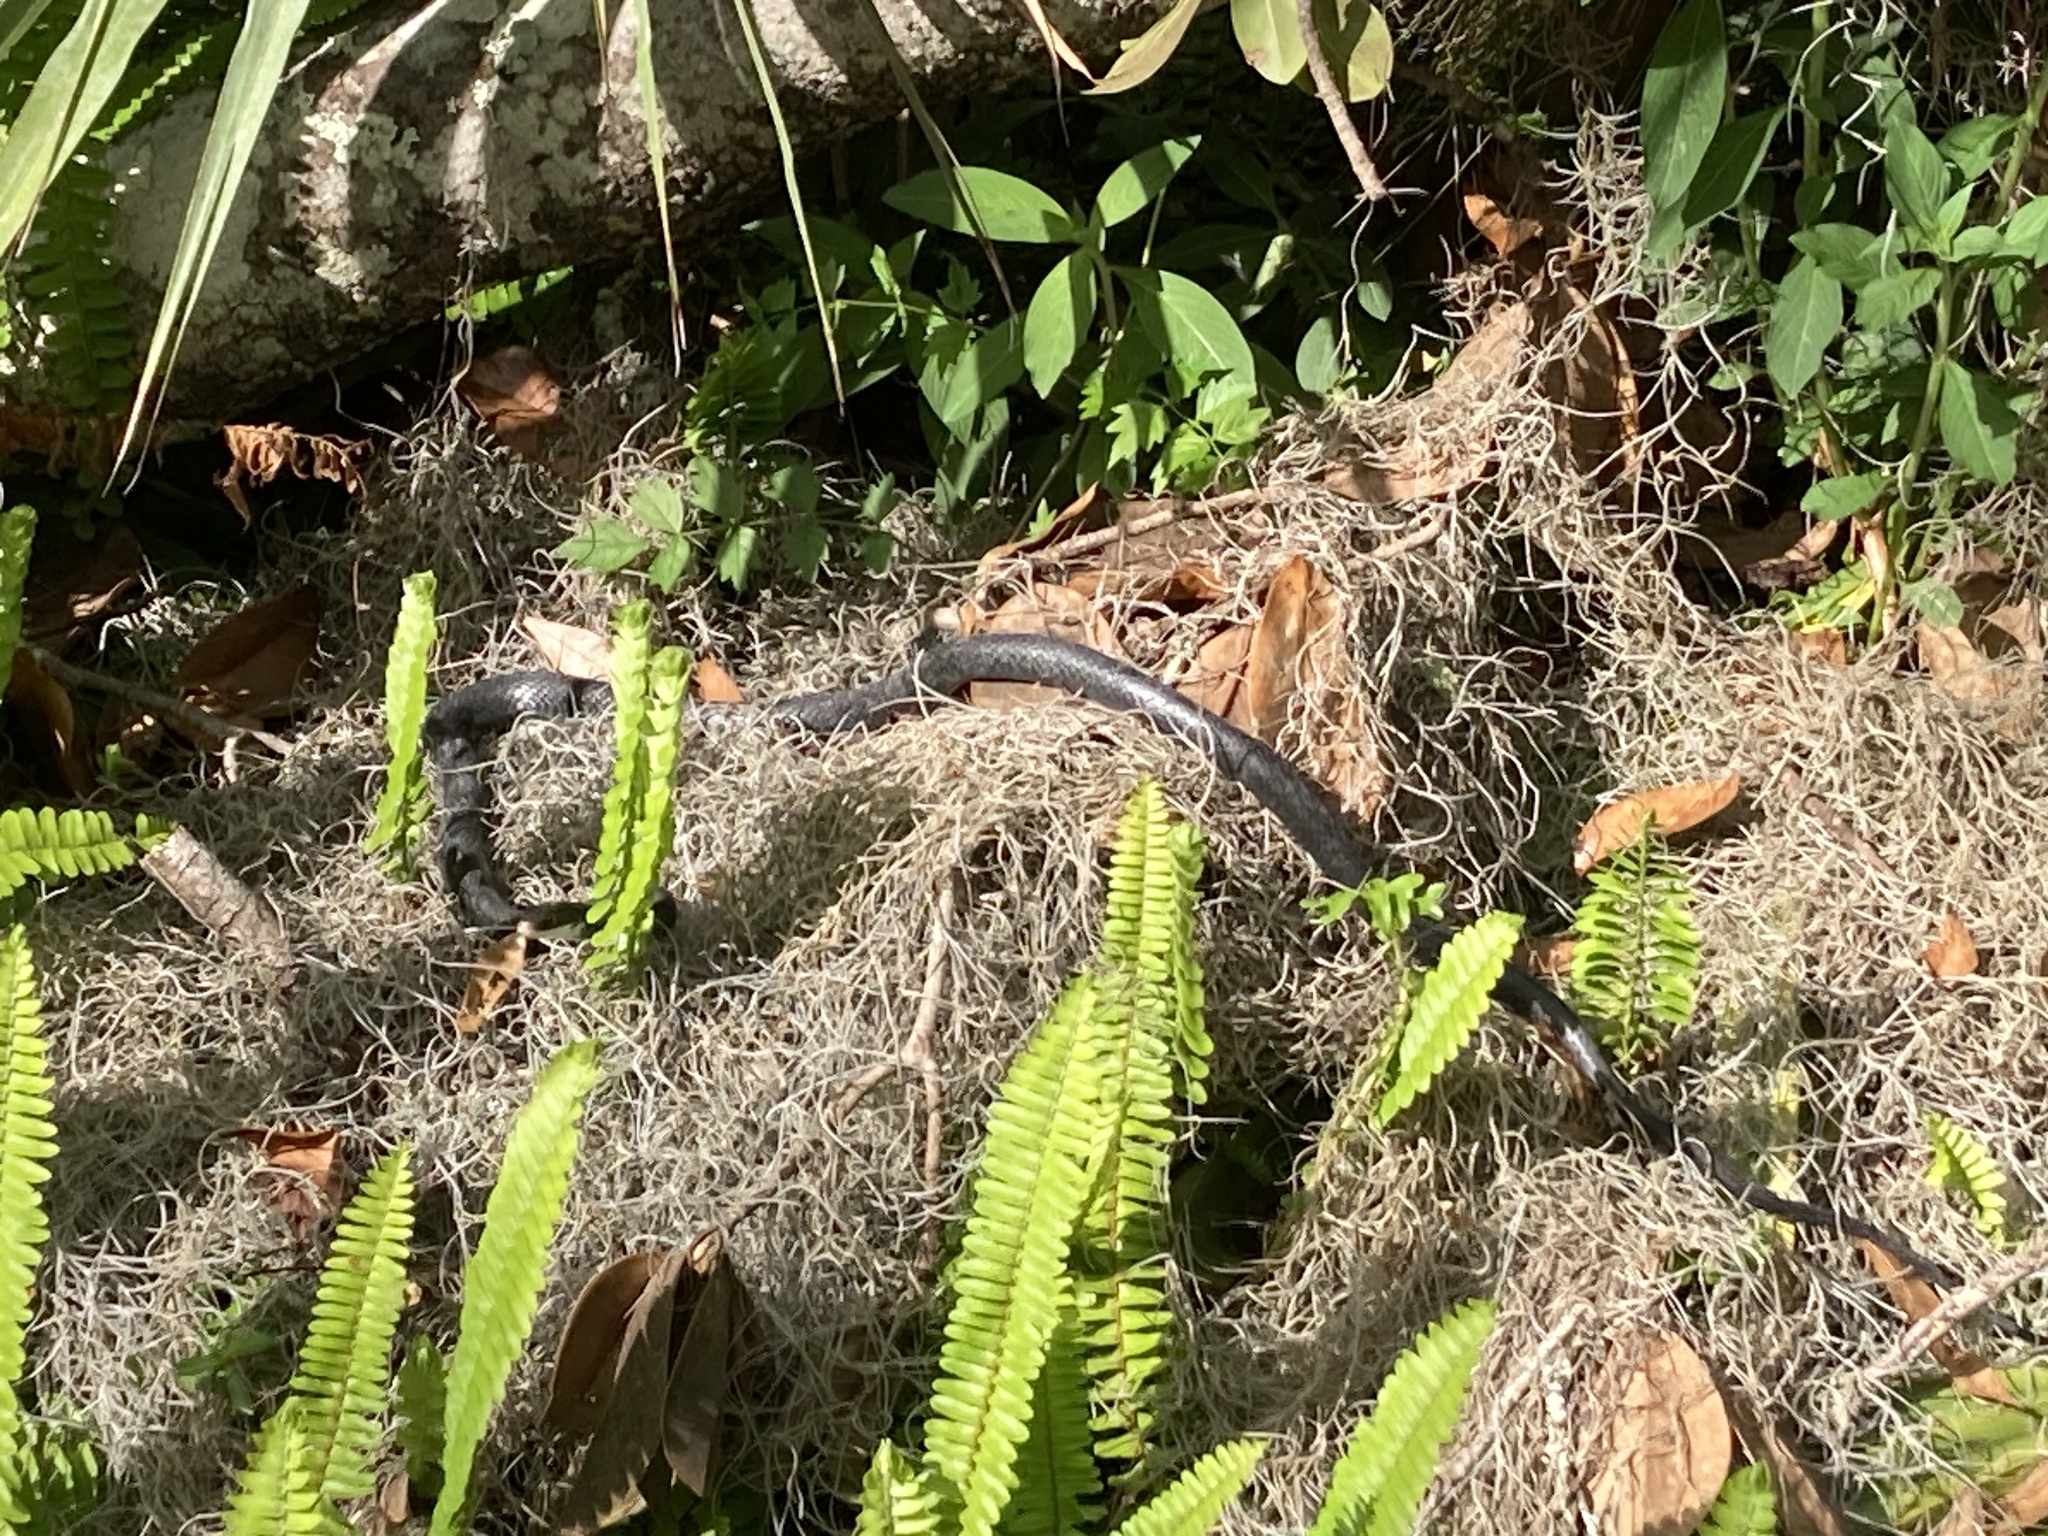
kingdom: Animalia
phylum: Chordata
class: Squamata
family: Colubridae
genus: Coluber
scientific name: Coluber constrictor
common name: Eastern racer
